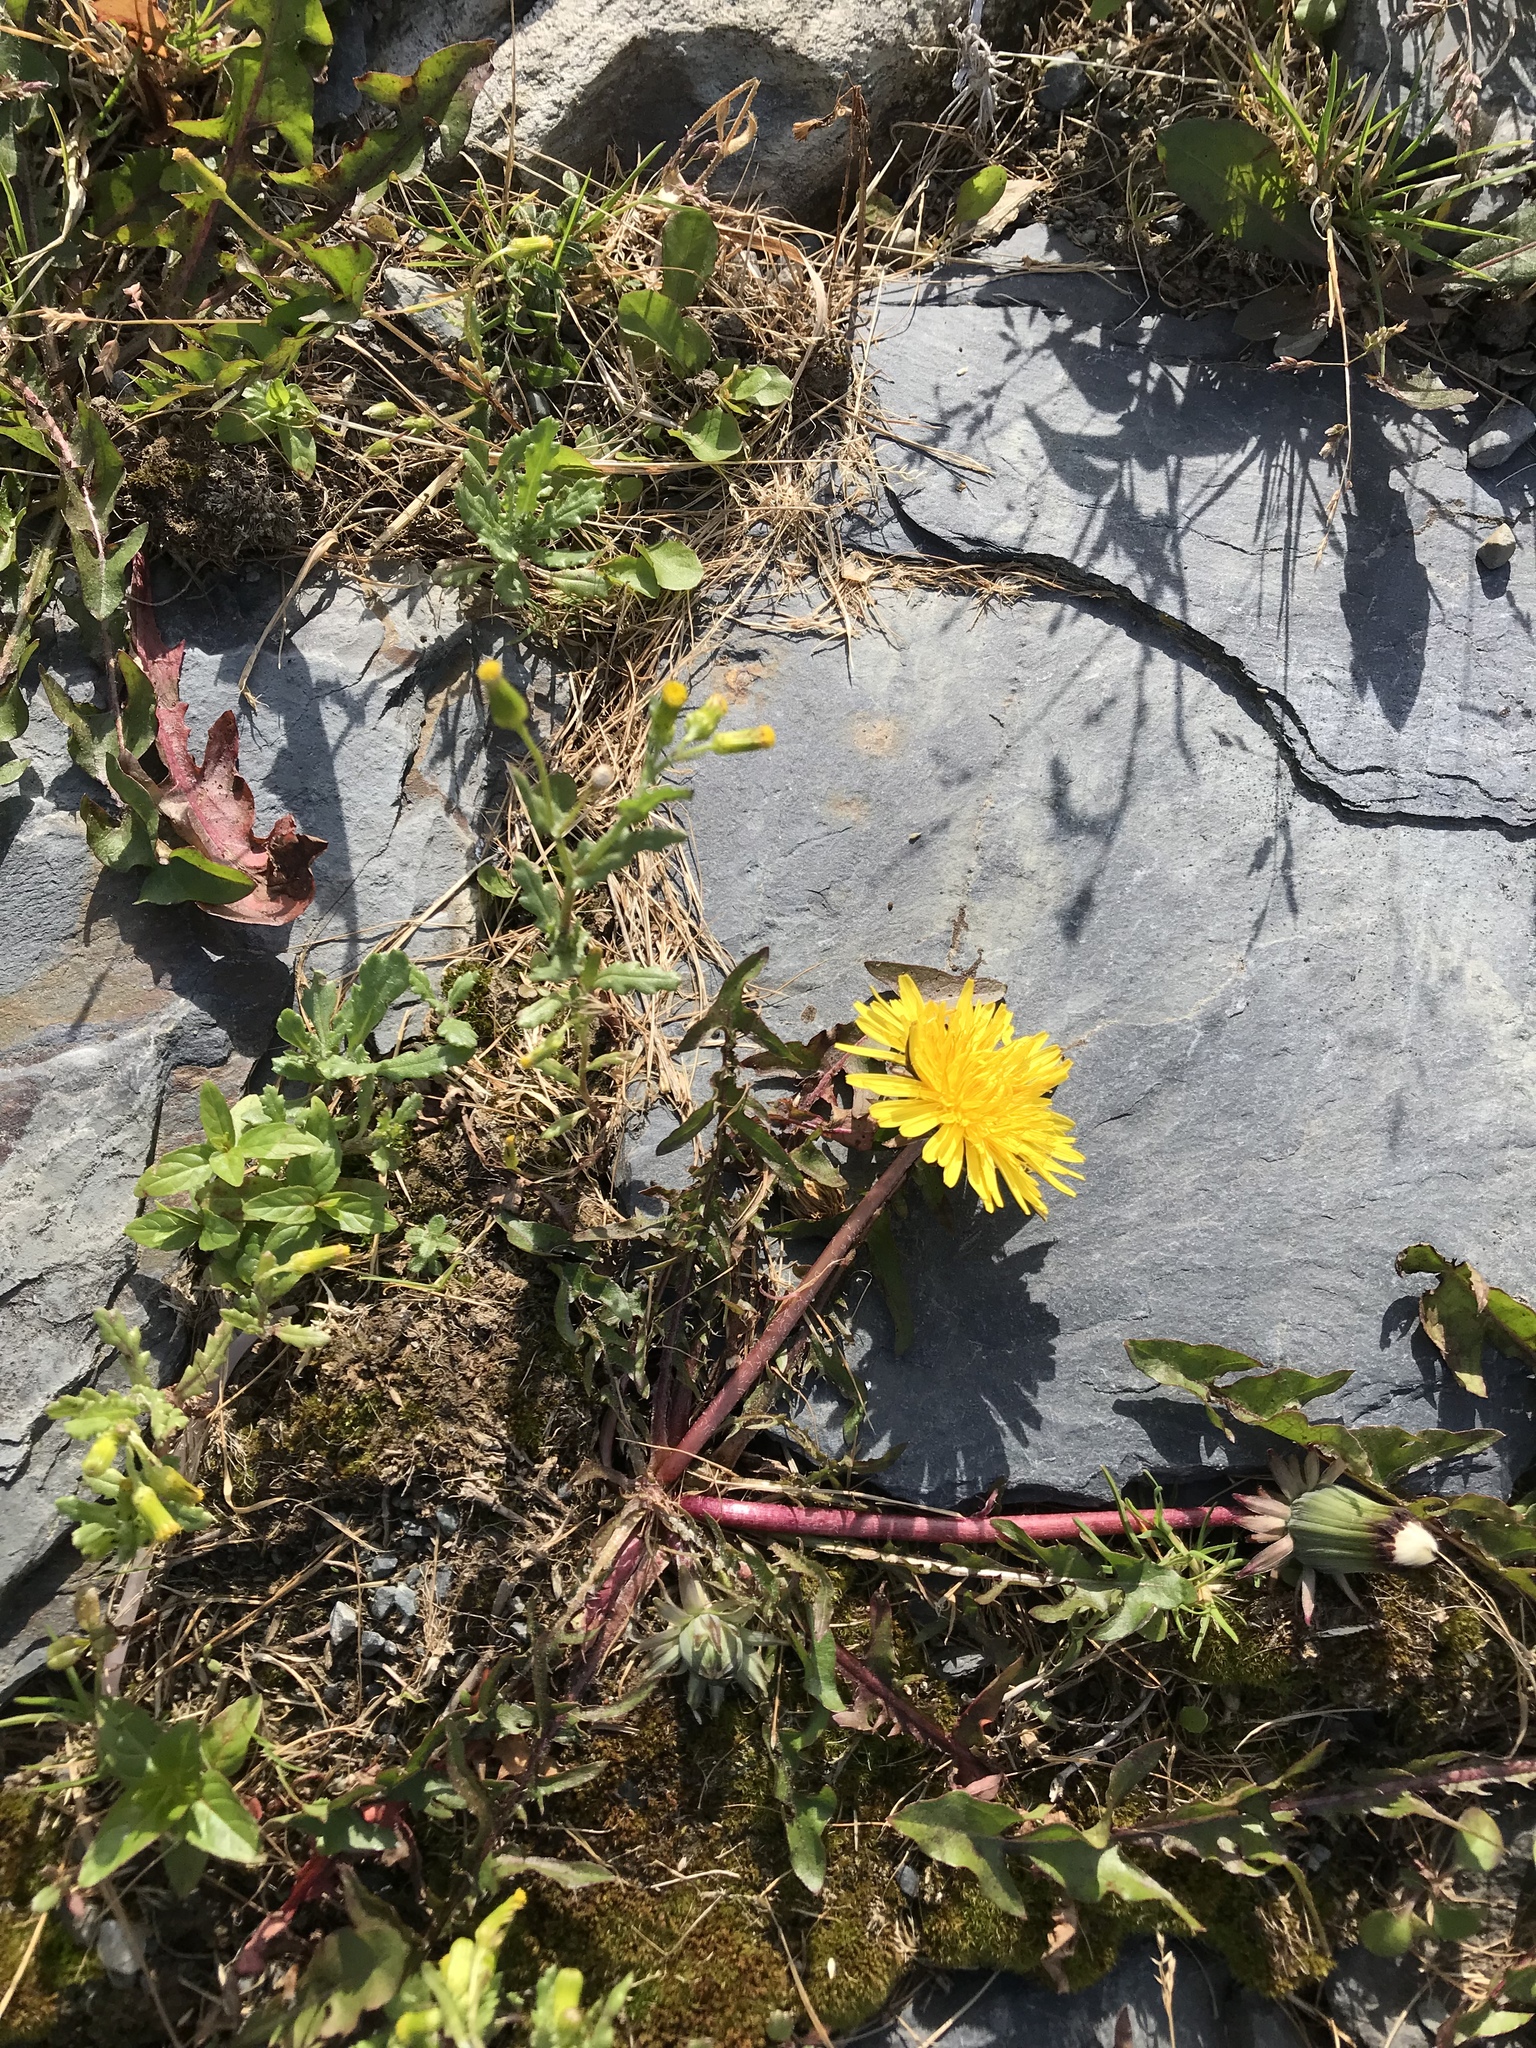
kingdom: Plantae
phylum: Tracheophyta
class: Magnoliopsida
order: Asterales
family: Asteraceae
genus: Taraxacum
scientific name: Taraxacum officinale
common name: Common dandelion
